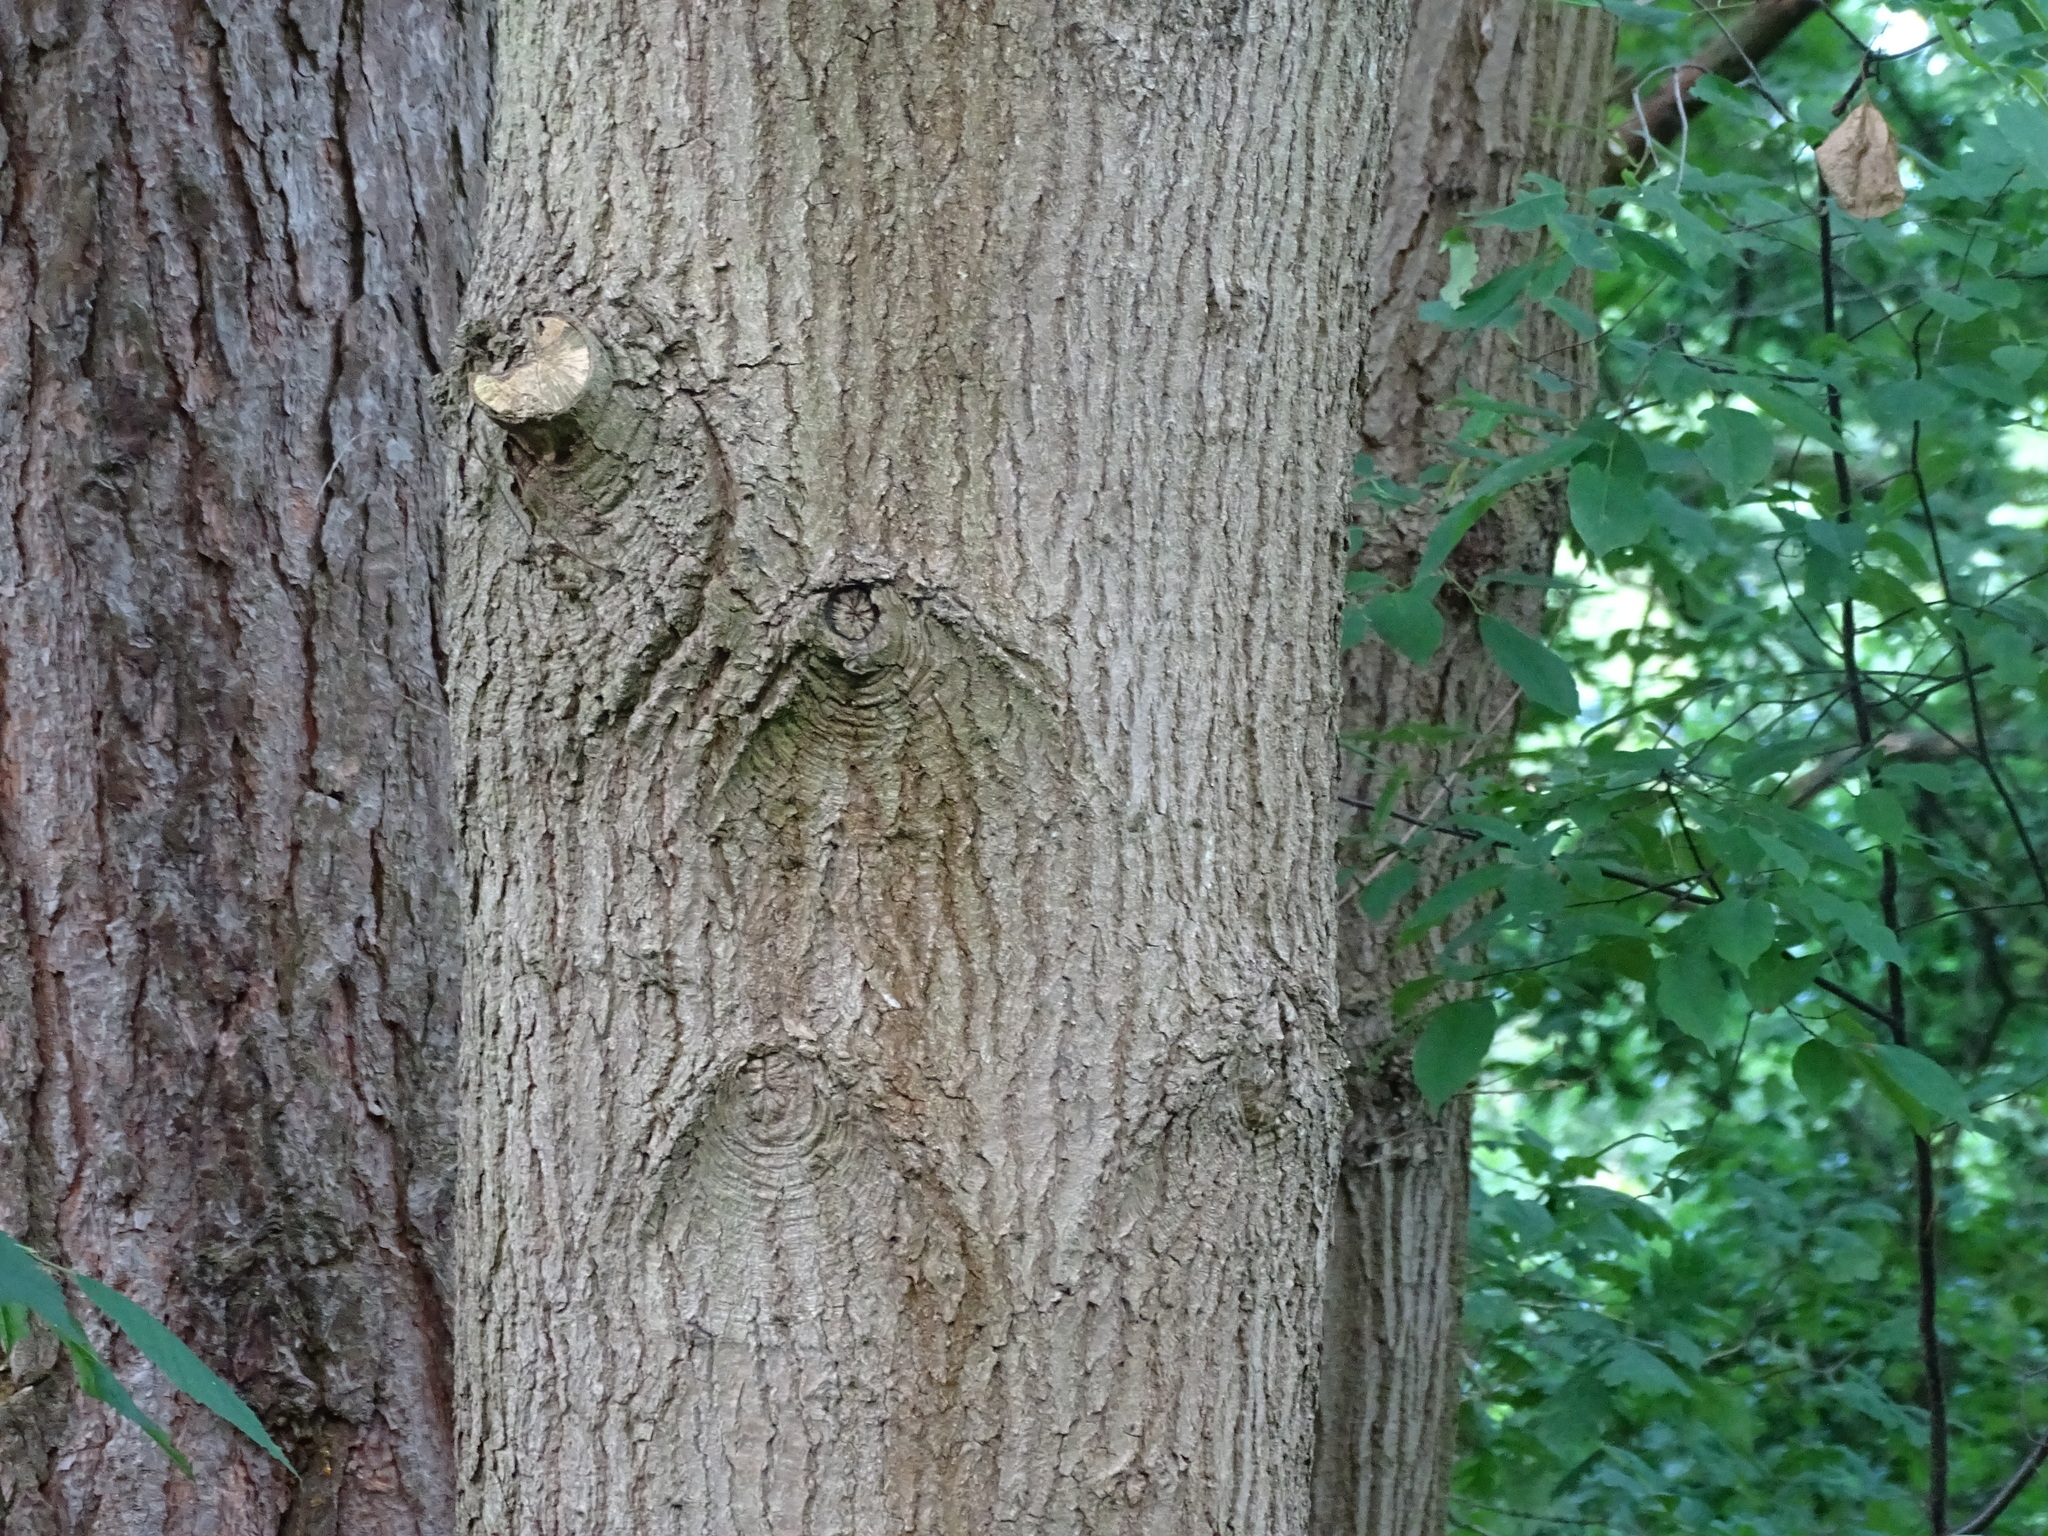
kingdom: Plantae
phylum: Tracheophyta
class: Magnoliopsida
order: Fagales
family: Fagaceae
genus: Quercus
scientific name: Quercus robur
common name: Pedunculate oak
